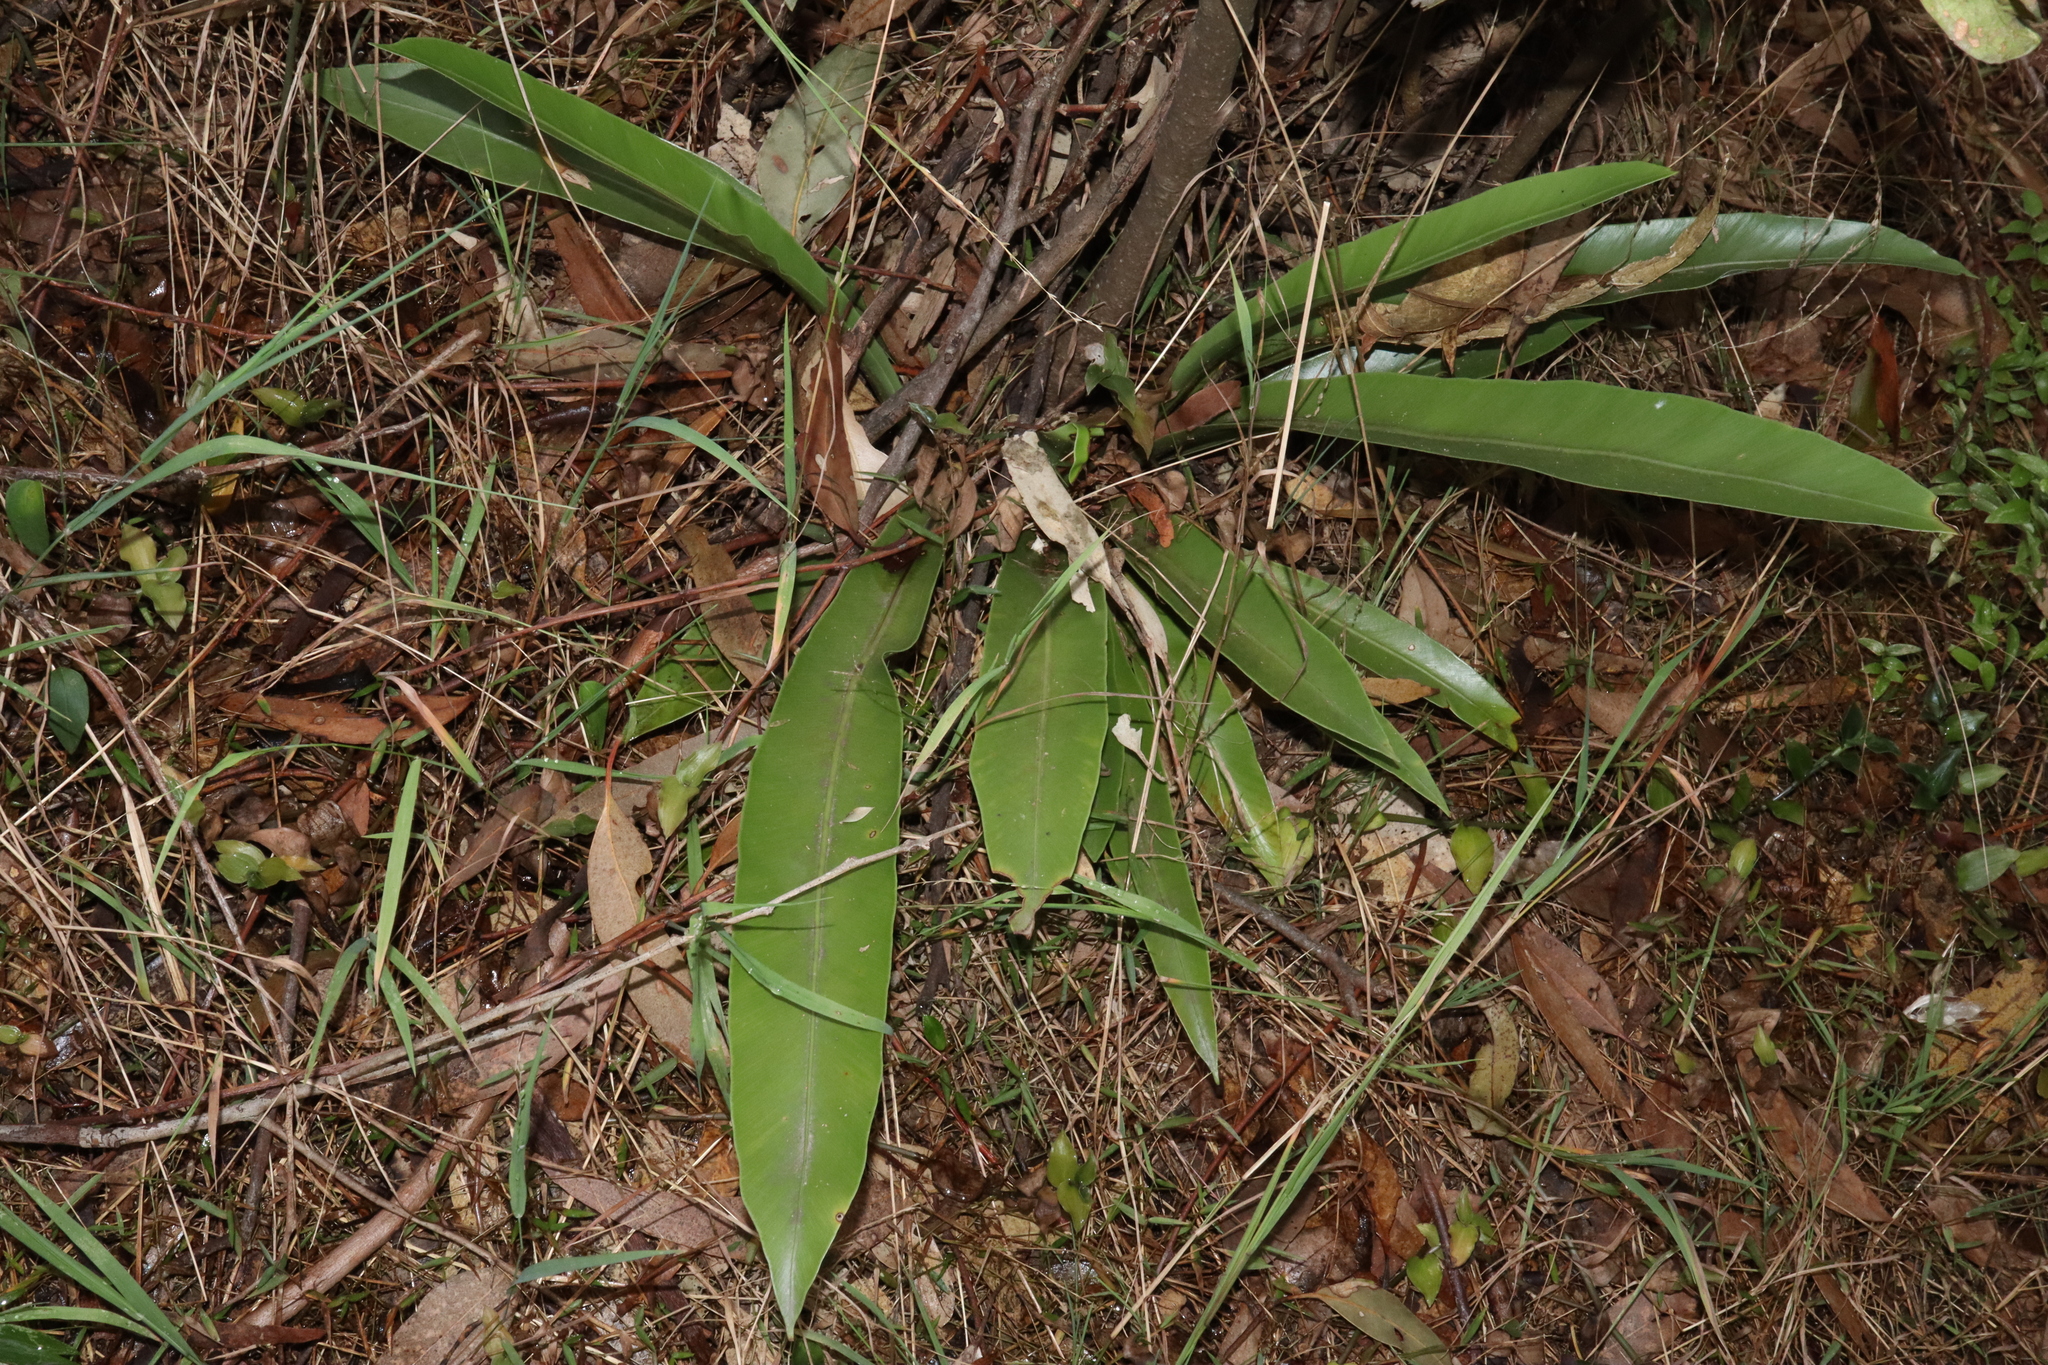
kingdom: Plantae
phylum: Tracheophyta
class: Polypodiopsida
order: Polypodiales
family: Aspleniaceae
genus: Asplenium
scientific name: Asplenium australasicum
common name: Bird's-nest fern
